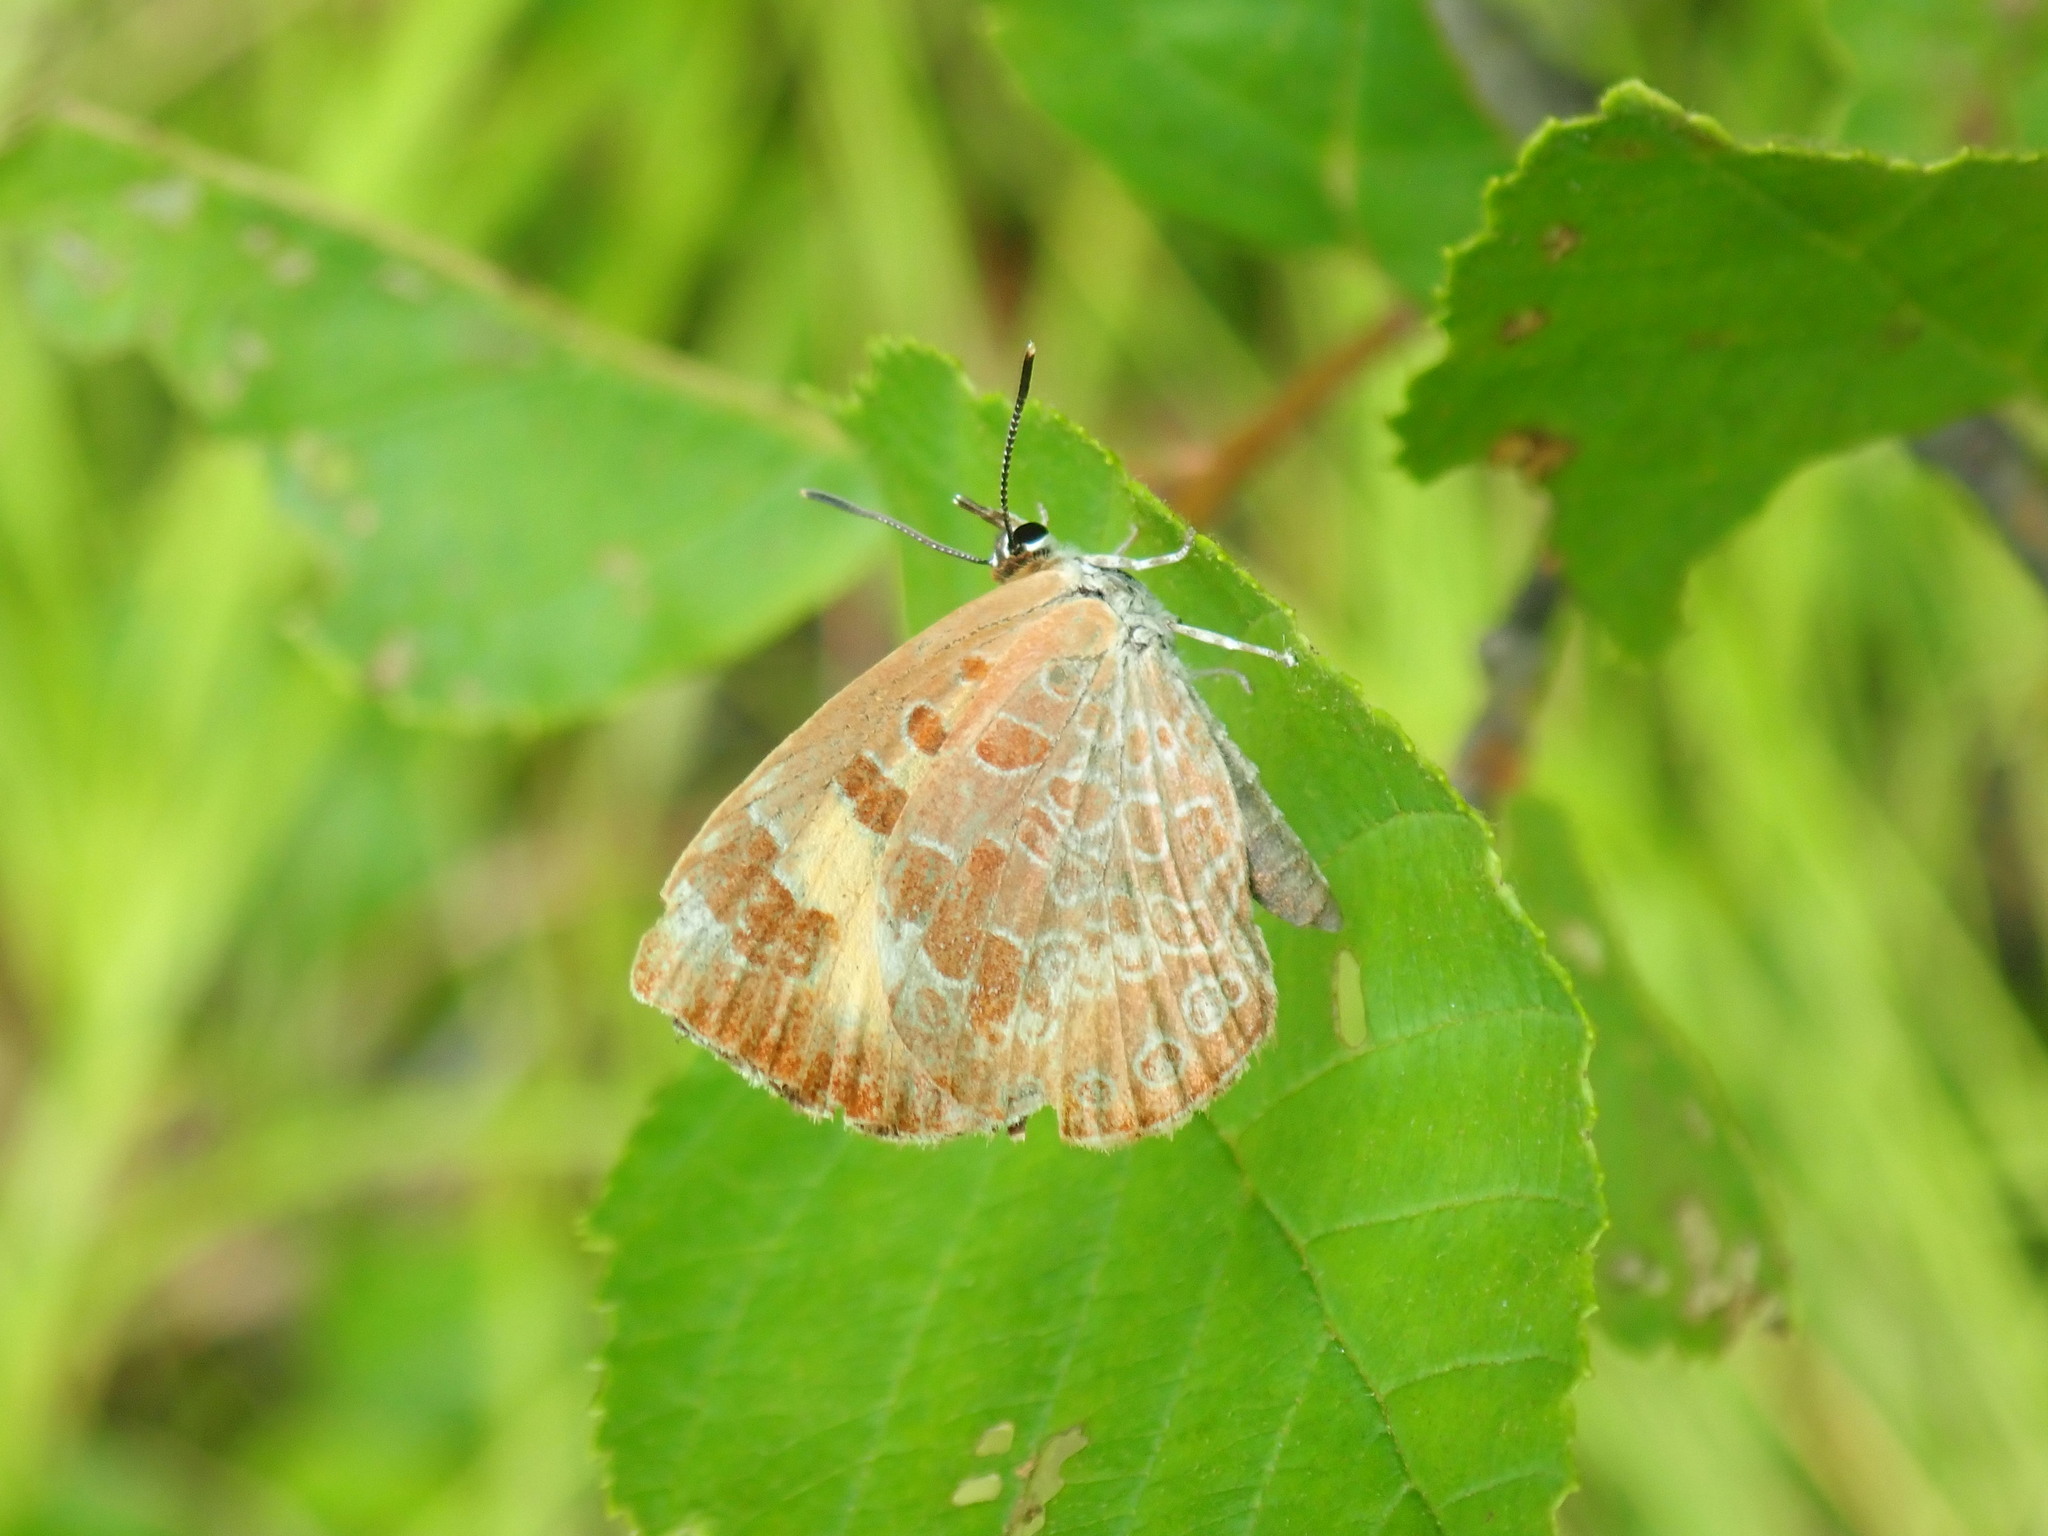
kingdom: Animalia
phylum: Arthropoda
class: Insecta
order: Lepidoptera
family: Lycaenidae
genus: Feniseca
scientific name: Feniseca tarquinius
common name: Harvester
